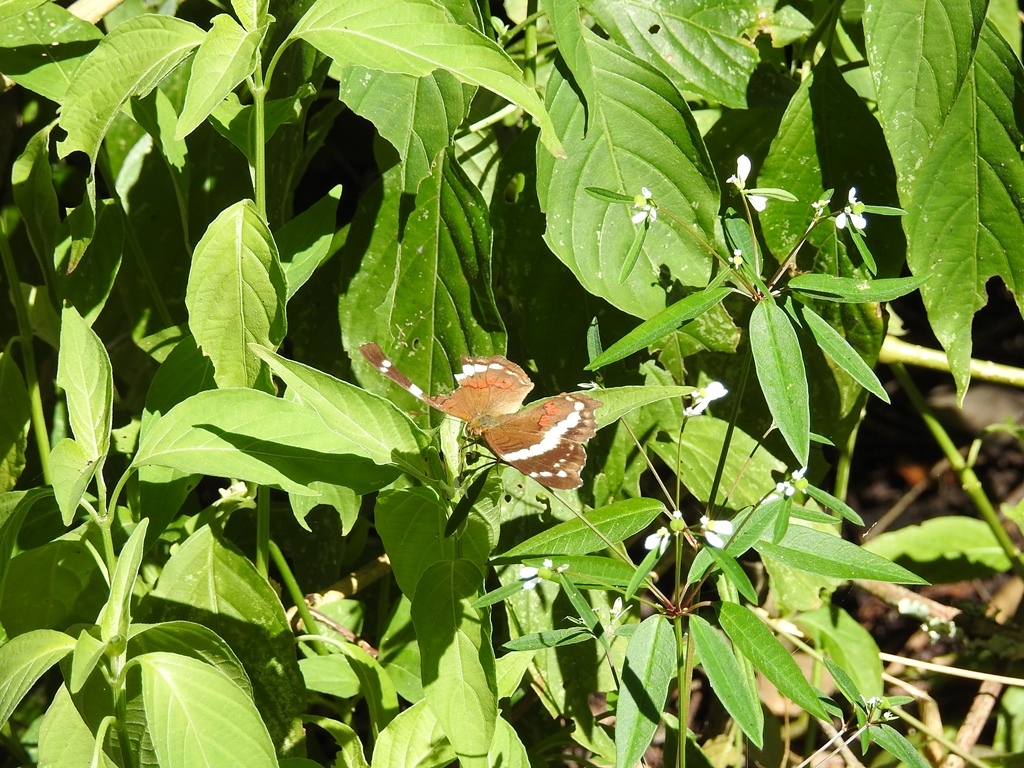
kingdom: Animalia
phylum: Arthropoda
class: Insecta
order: Lepidoptera
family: Nymphalidae
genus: Anartia
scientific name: Anartia fatima
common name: Banded peacock
